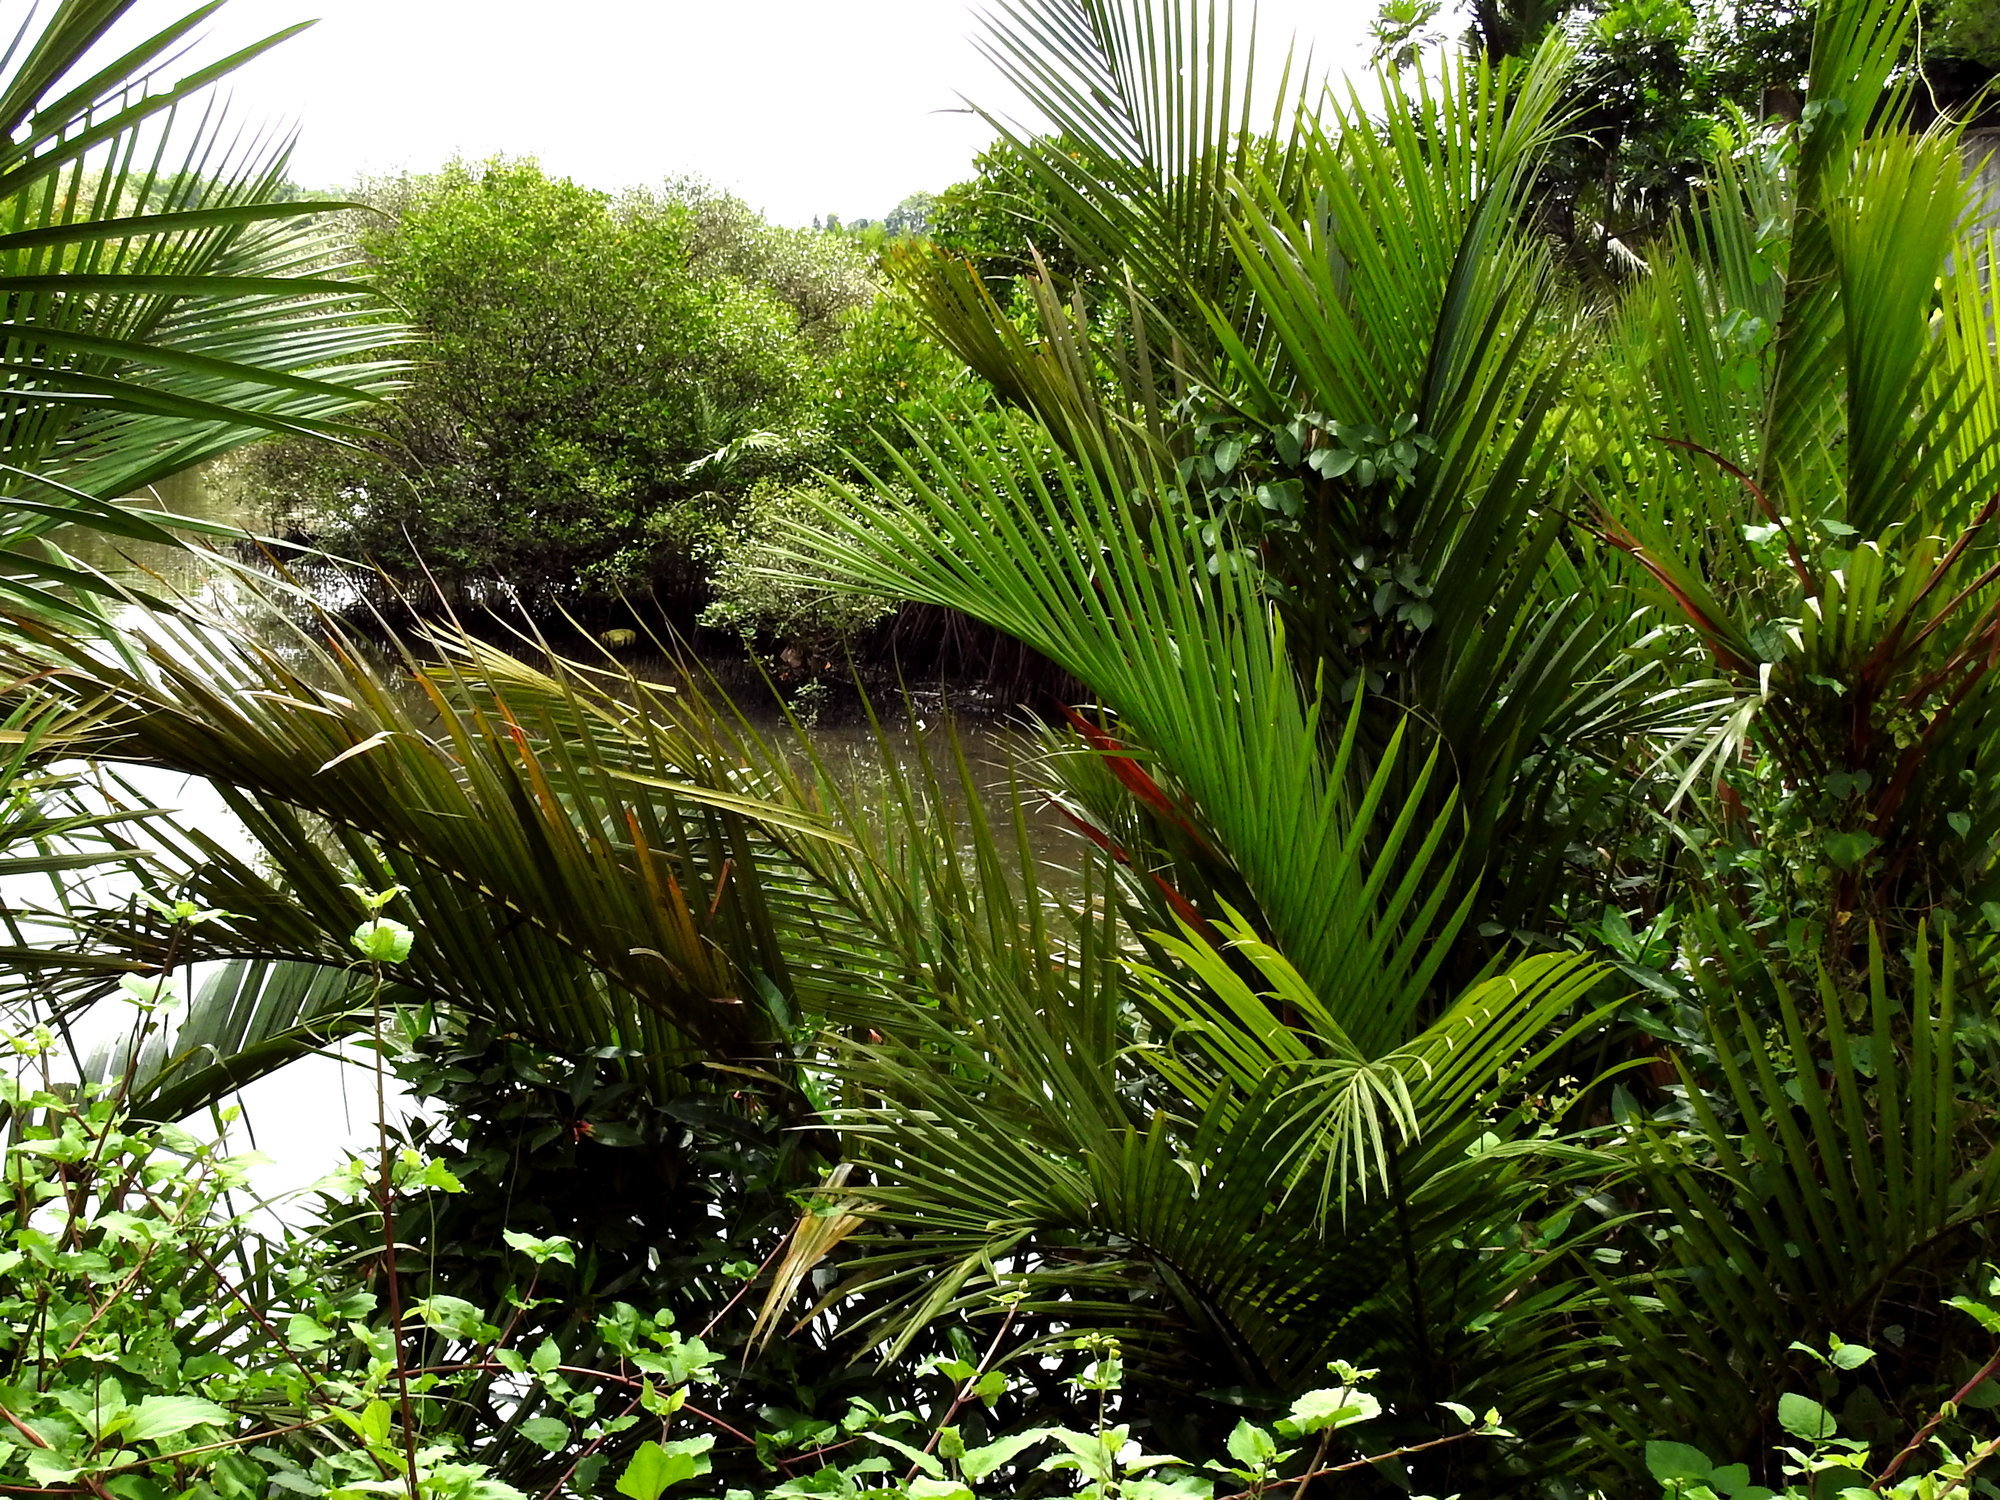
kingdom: Plantae
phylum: Tracheophyta
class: Liliopsida
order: Arecales
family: Arecaceae
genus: Nypa
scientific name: Nypa fruticans
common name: Mangrove palm
